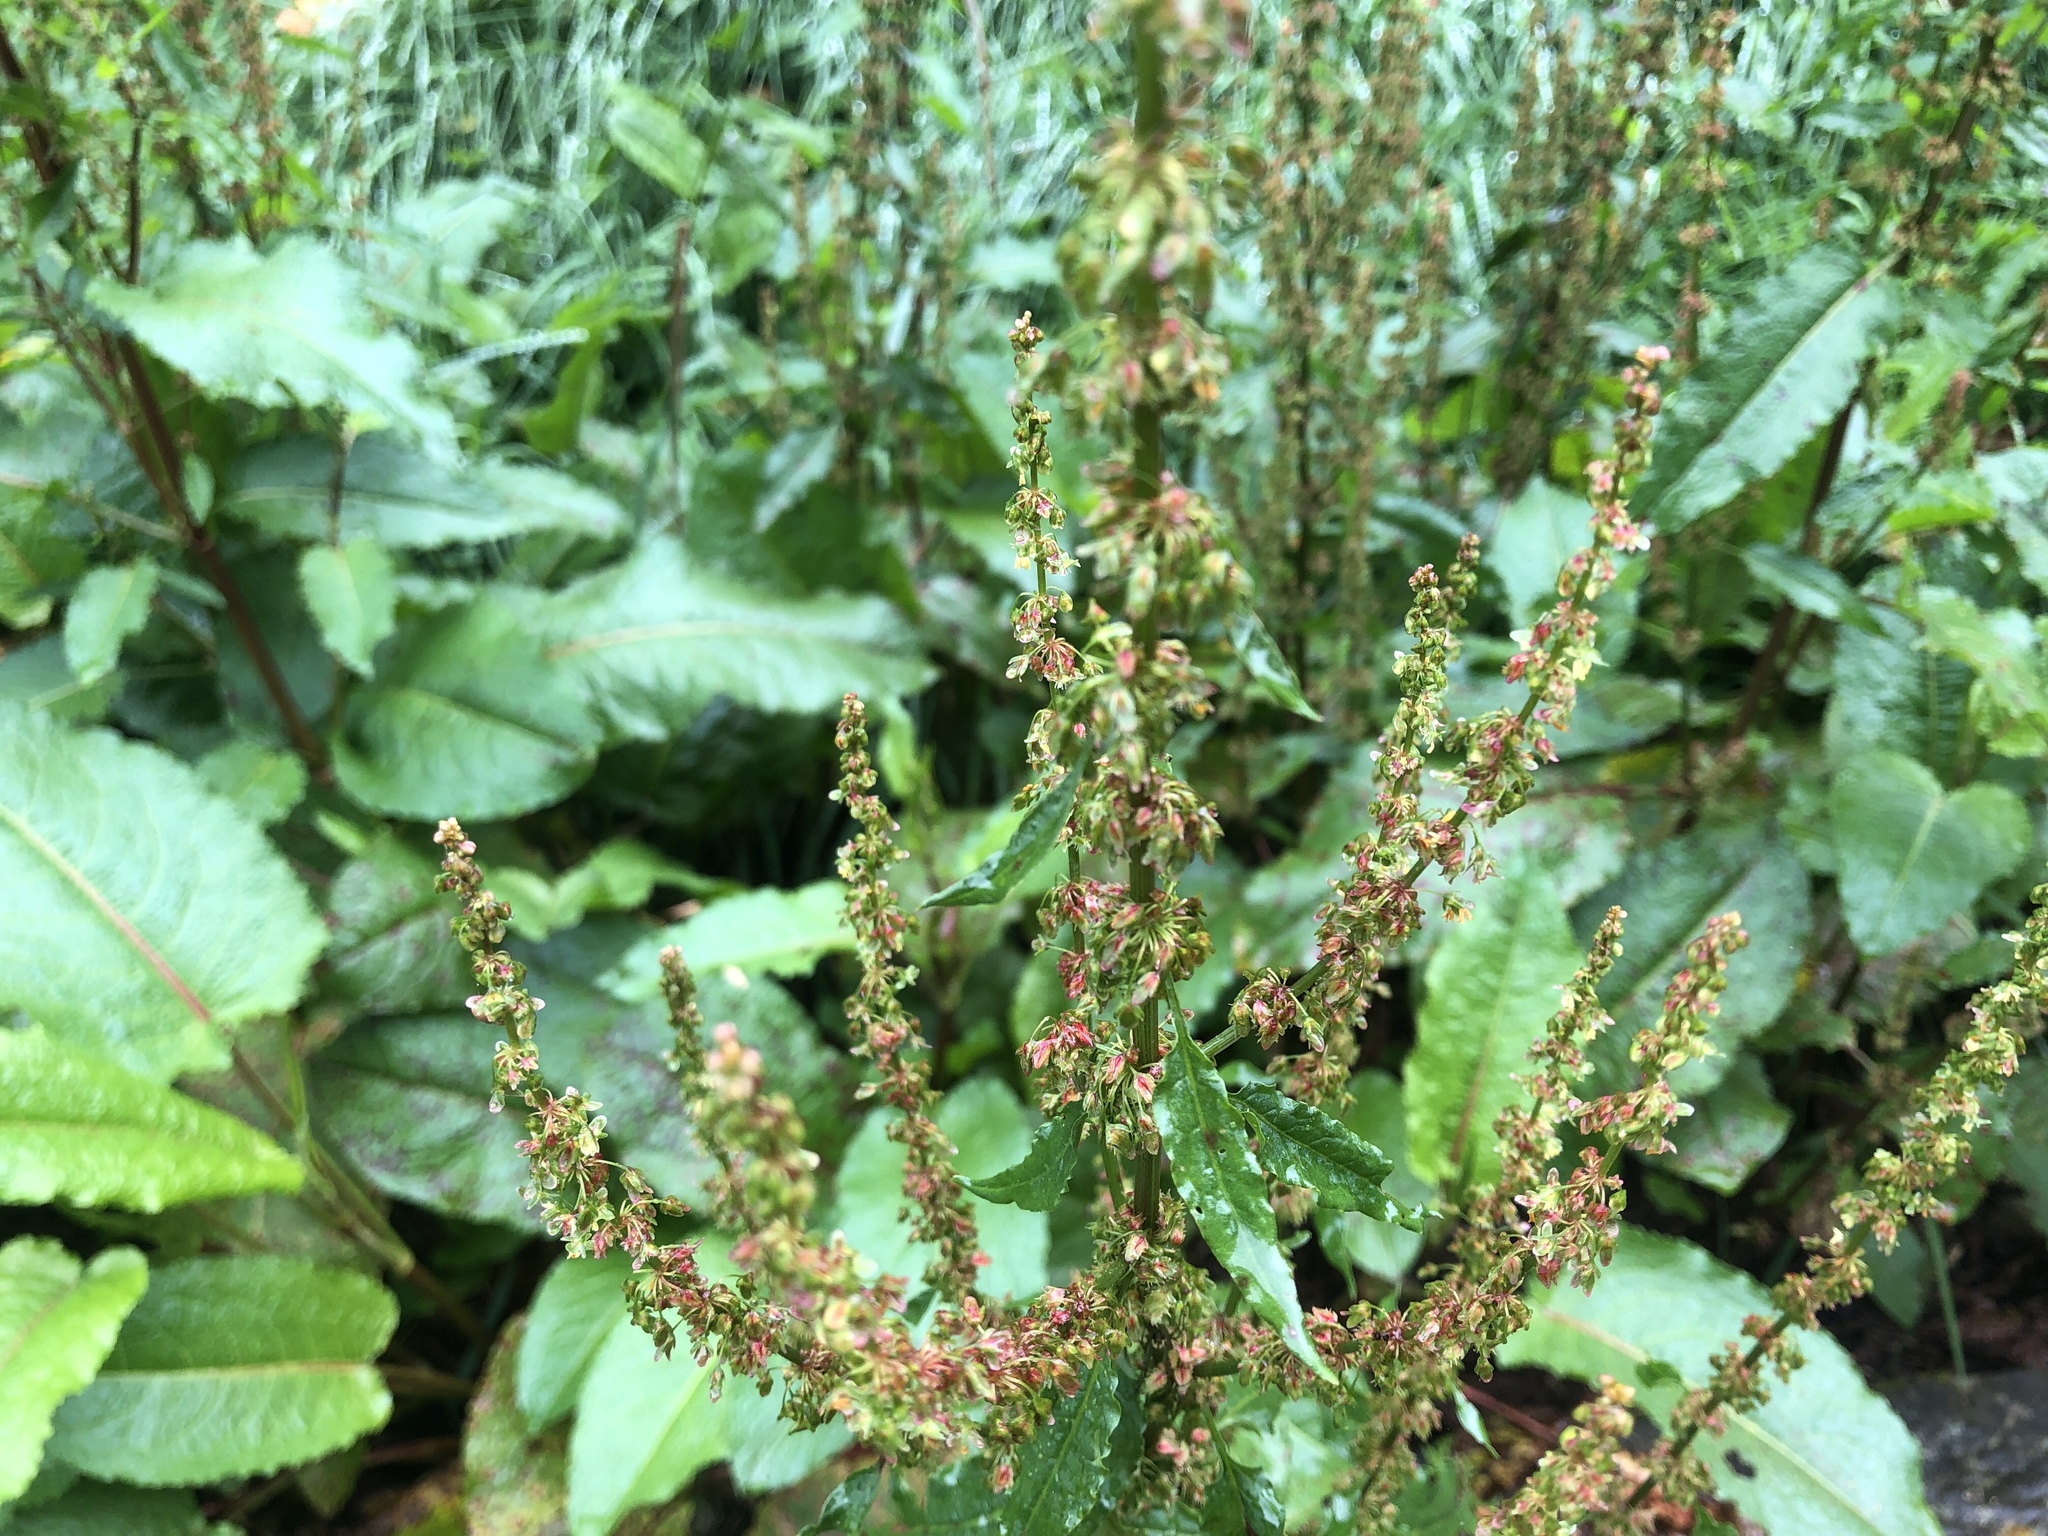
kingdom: Plantae
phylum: Tracheophyta
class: Magnoliopsida
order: Caryophyllales
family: Polygonaceae
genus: Rumex
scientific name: Rumex japonicus
